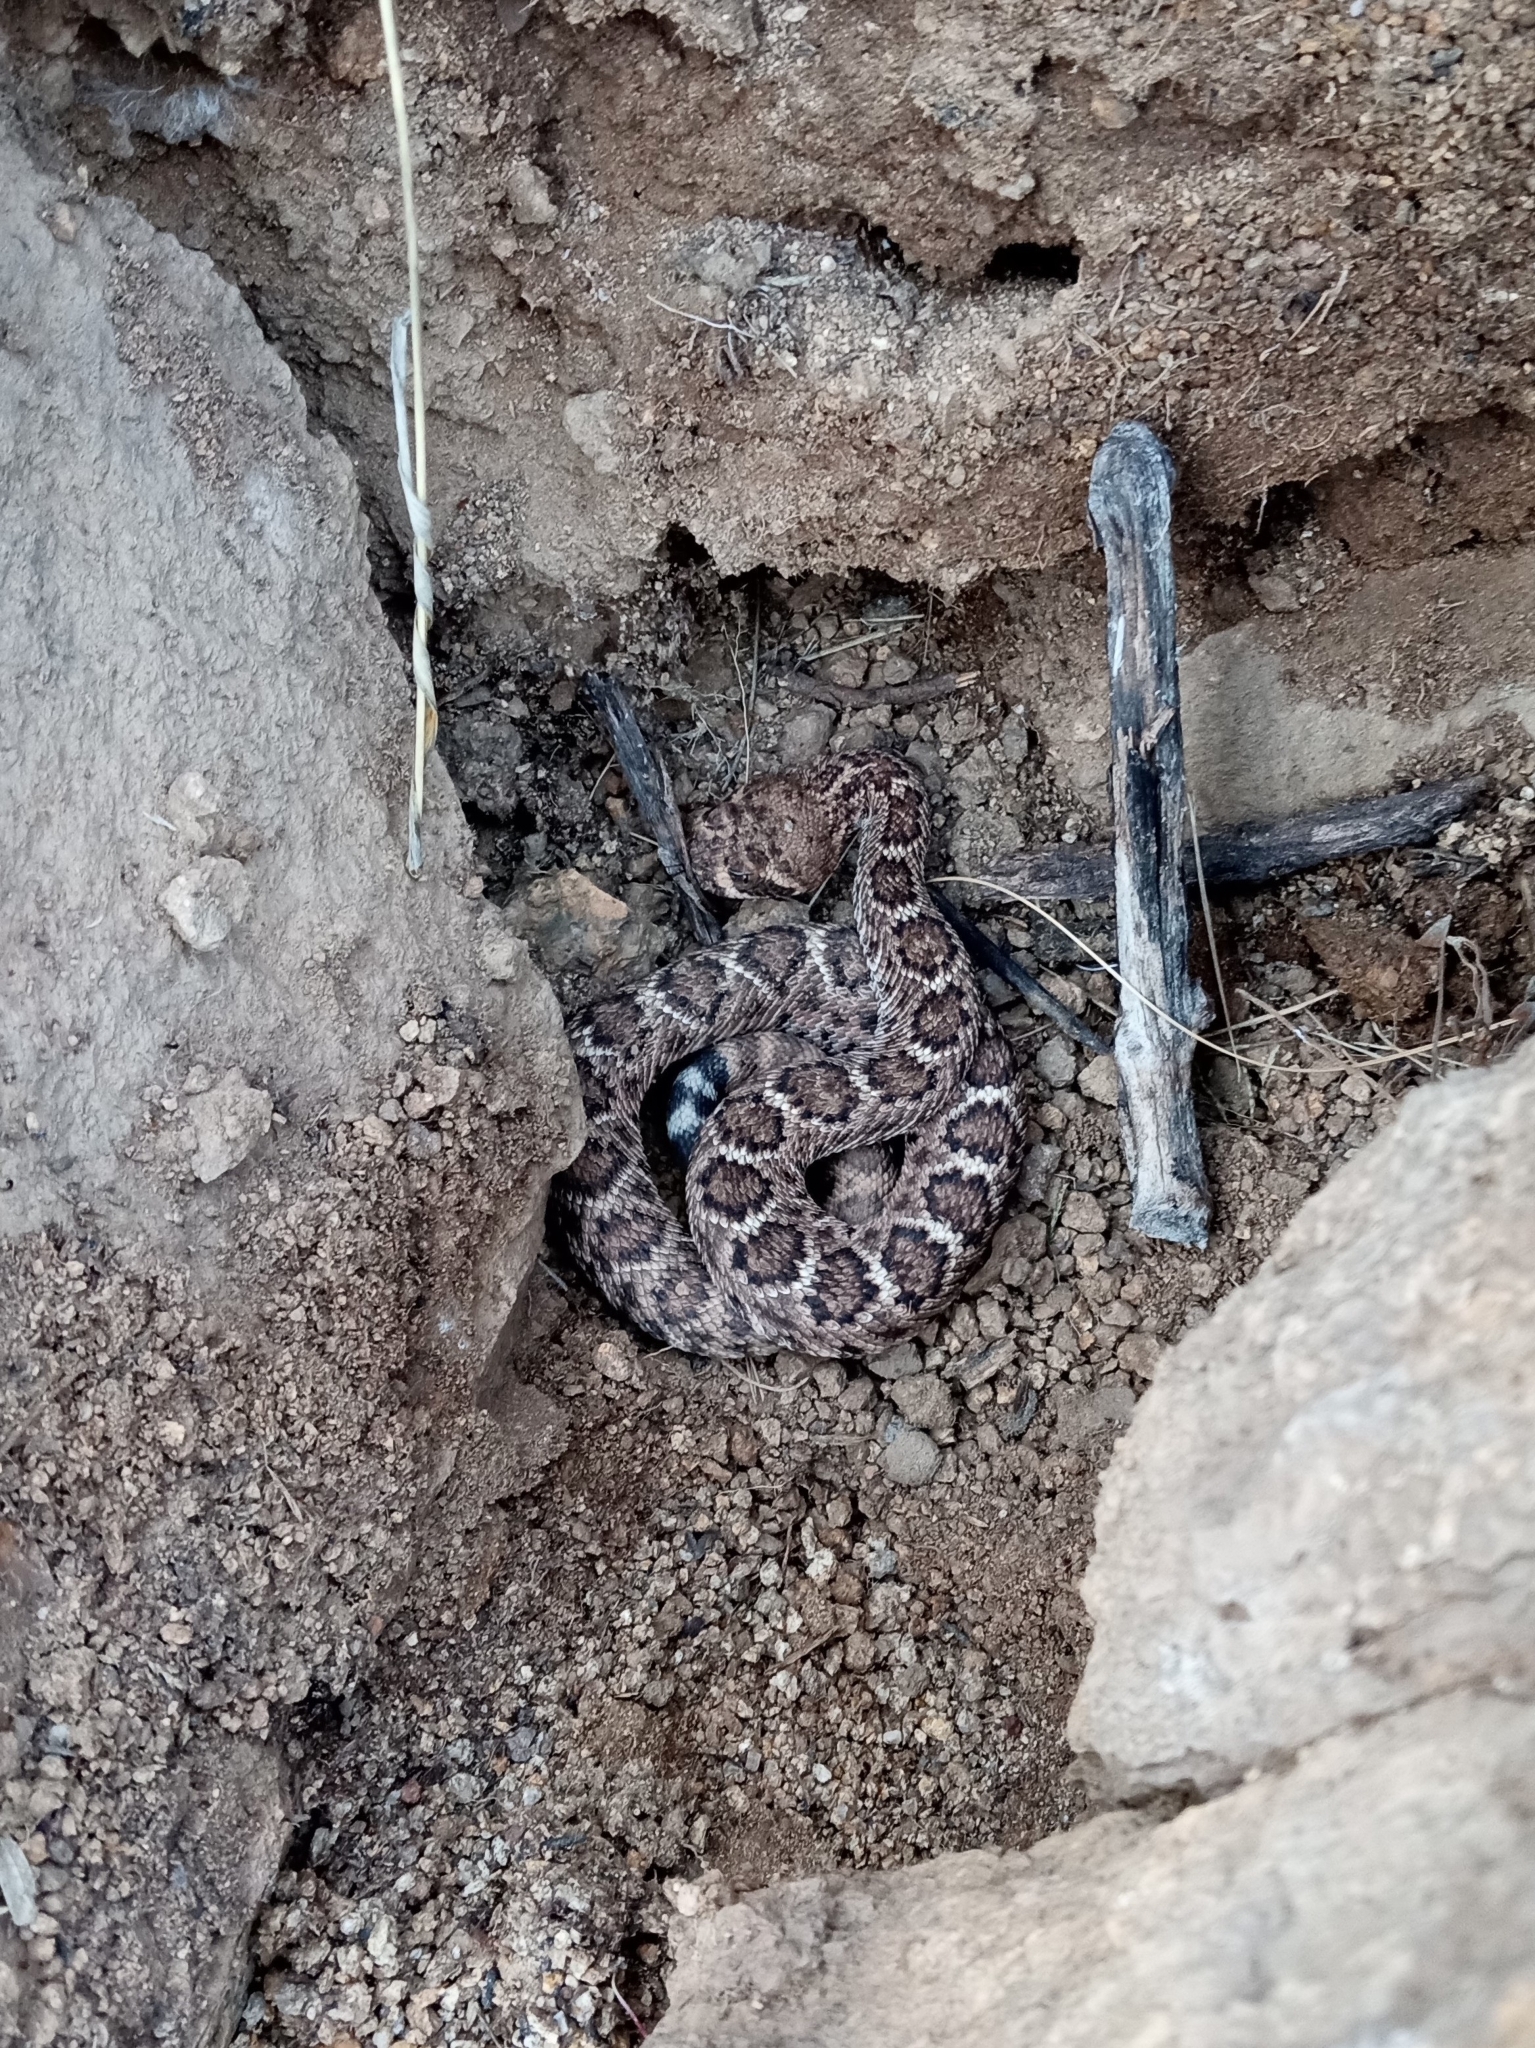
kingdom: Animalia
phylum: Chordata
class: Squamata
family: Viperidae
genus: Crotalus
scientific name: Crotalus atrox
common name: Western diamond-backed rattlesnake
